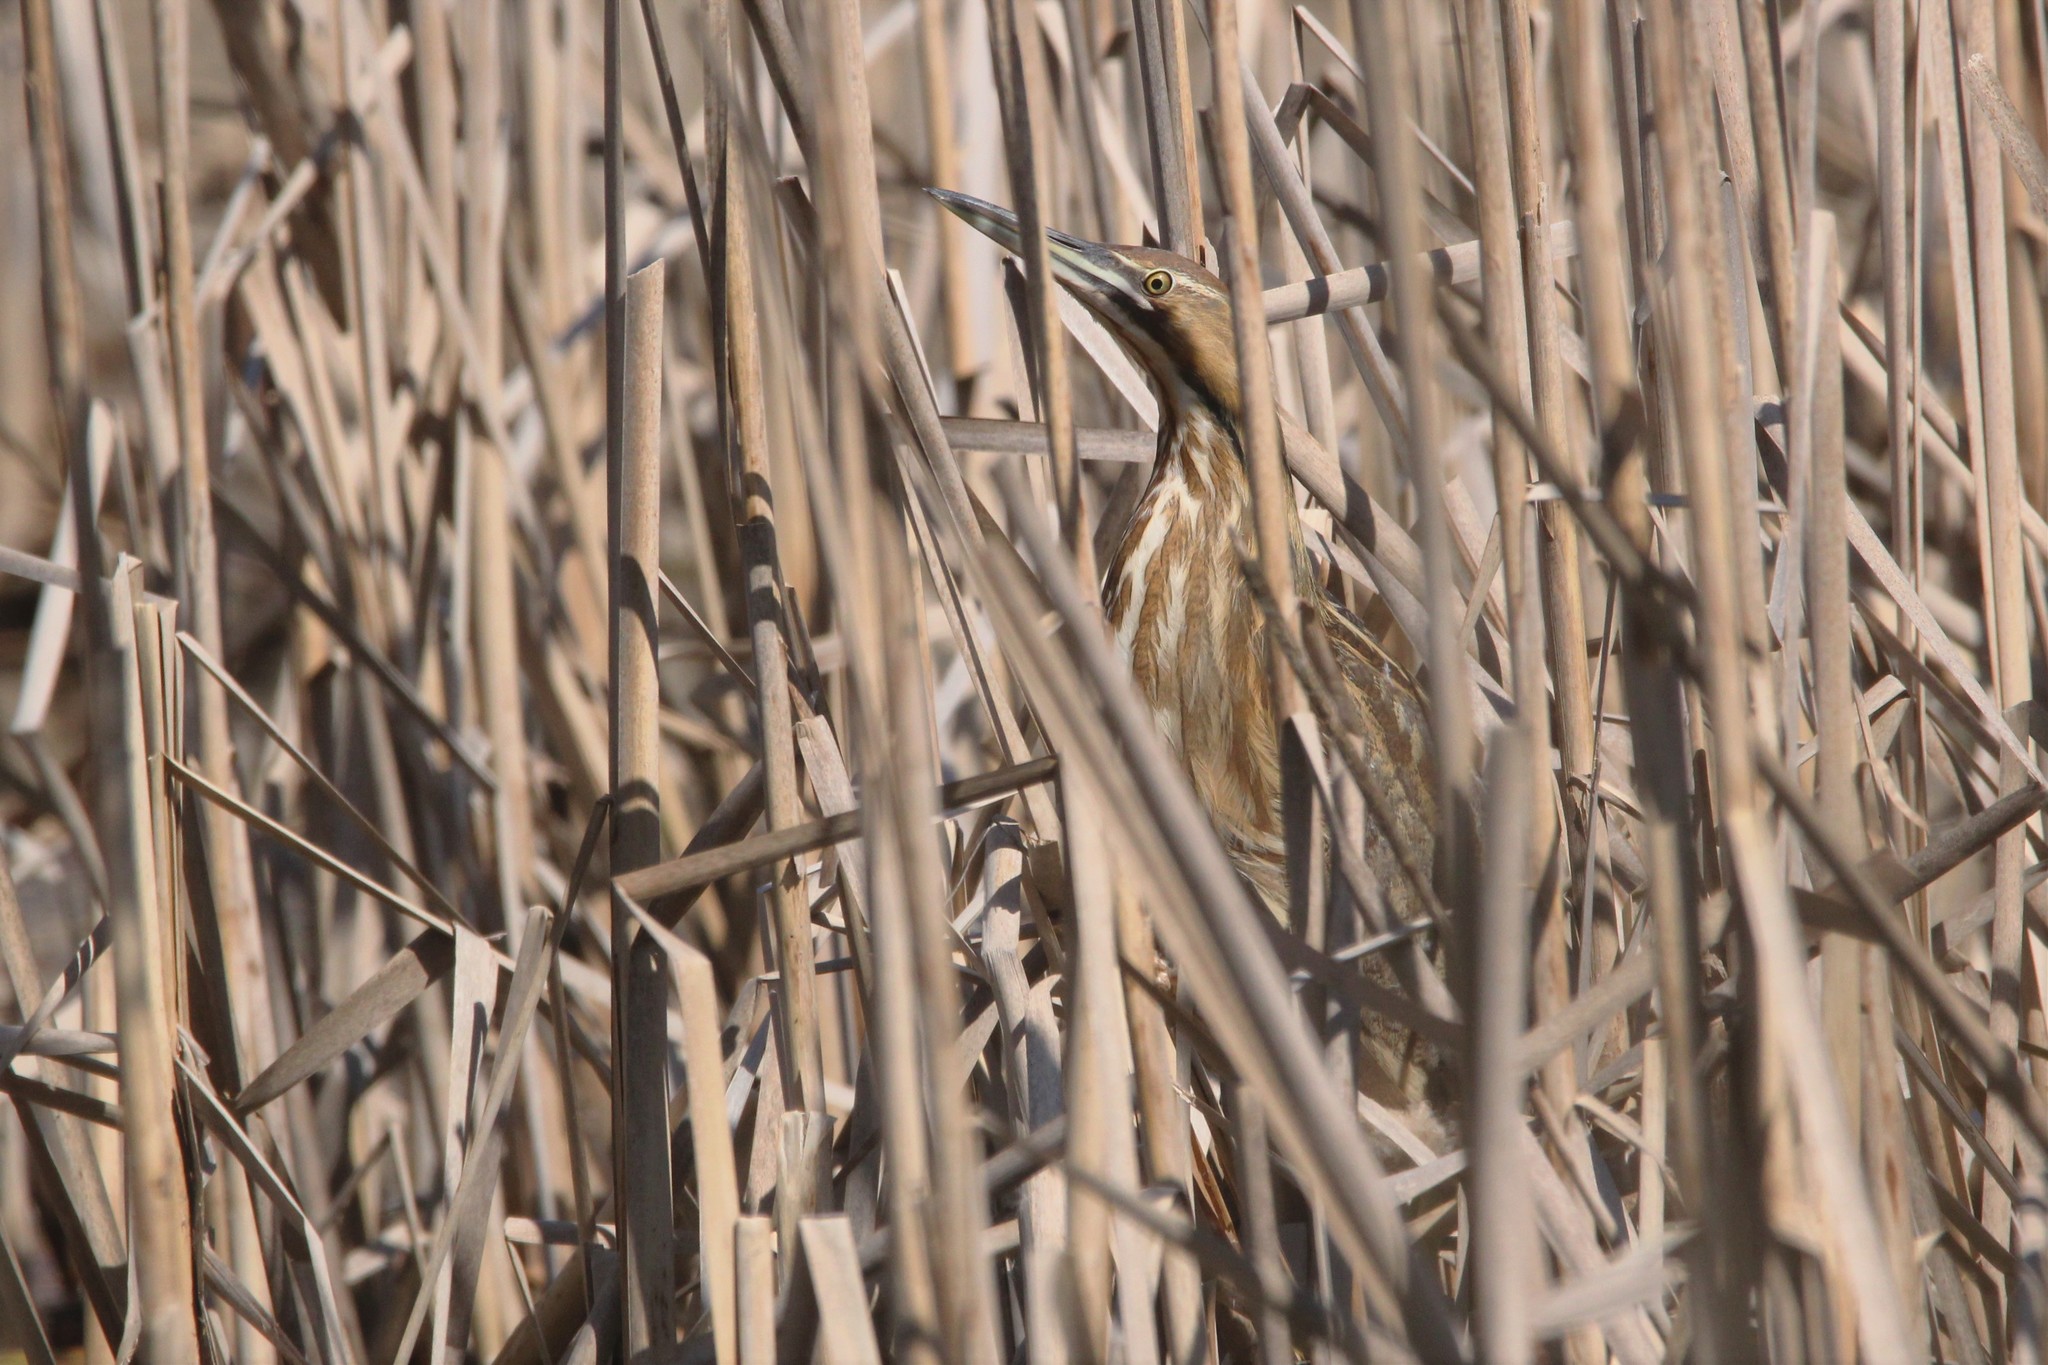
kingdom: Animalia
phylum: Chordata
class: Aves
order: Pelecaniformes
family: Ardeidae
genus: Botaurus
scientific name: Botaurus lentiginosus
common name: American bittern
